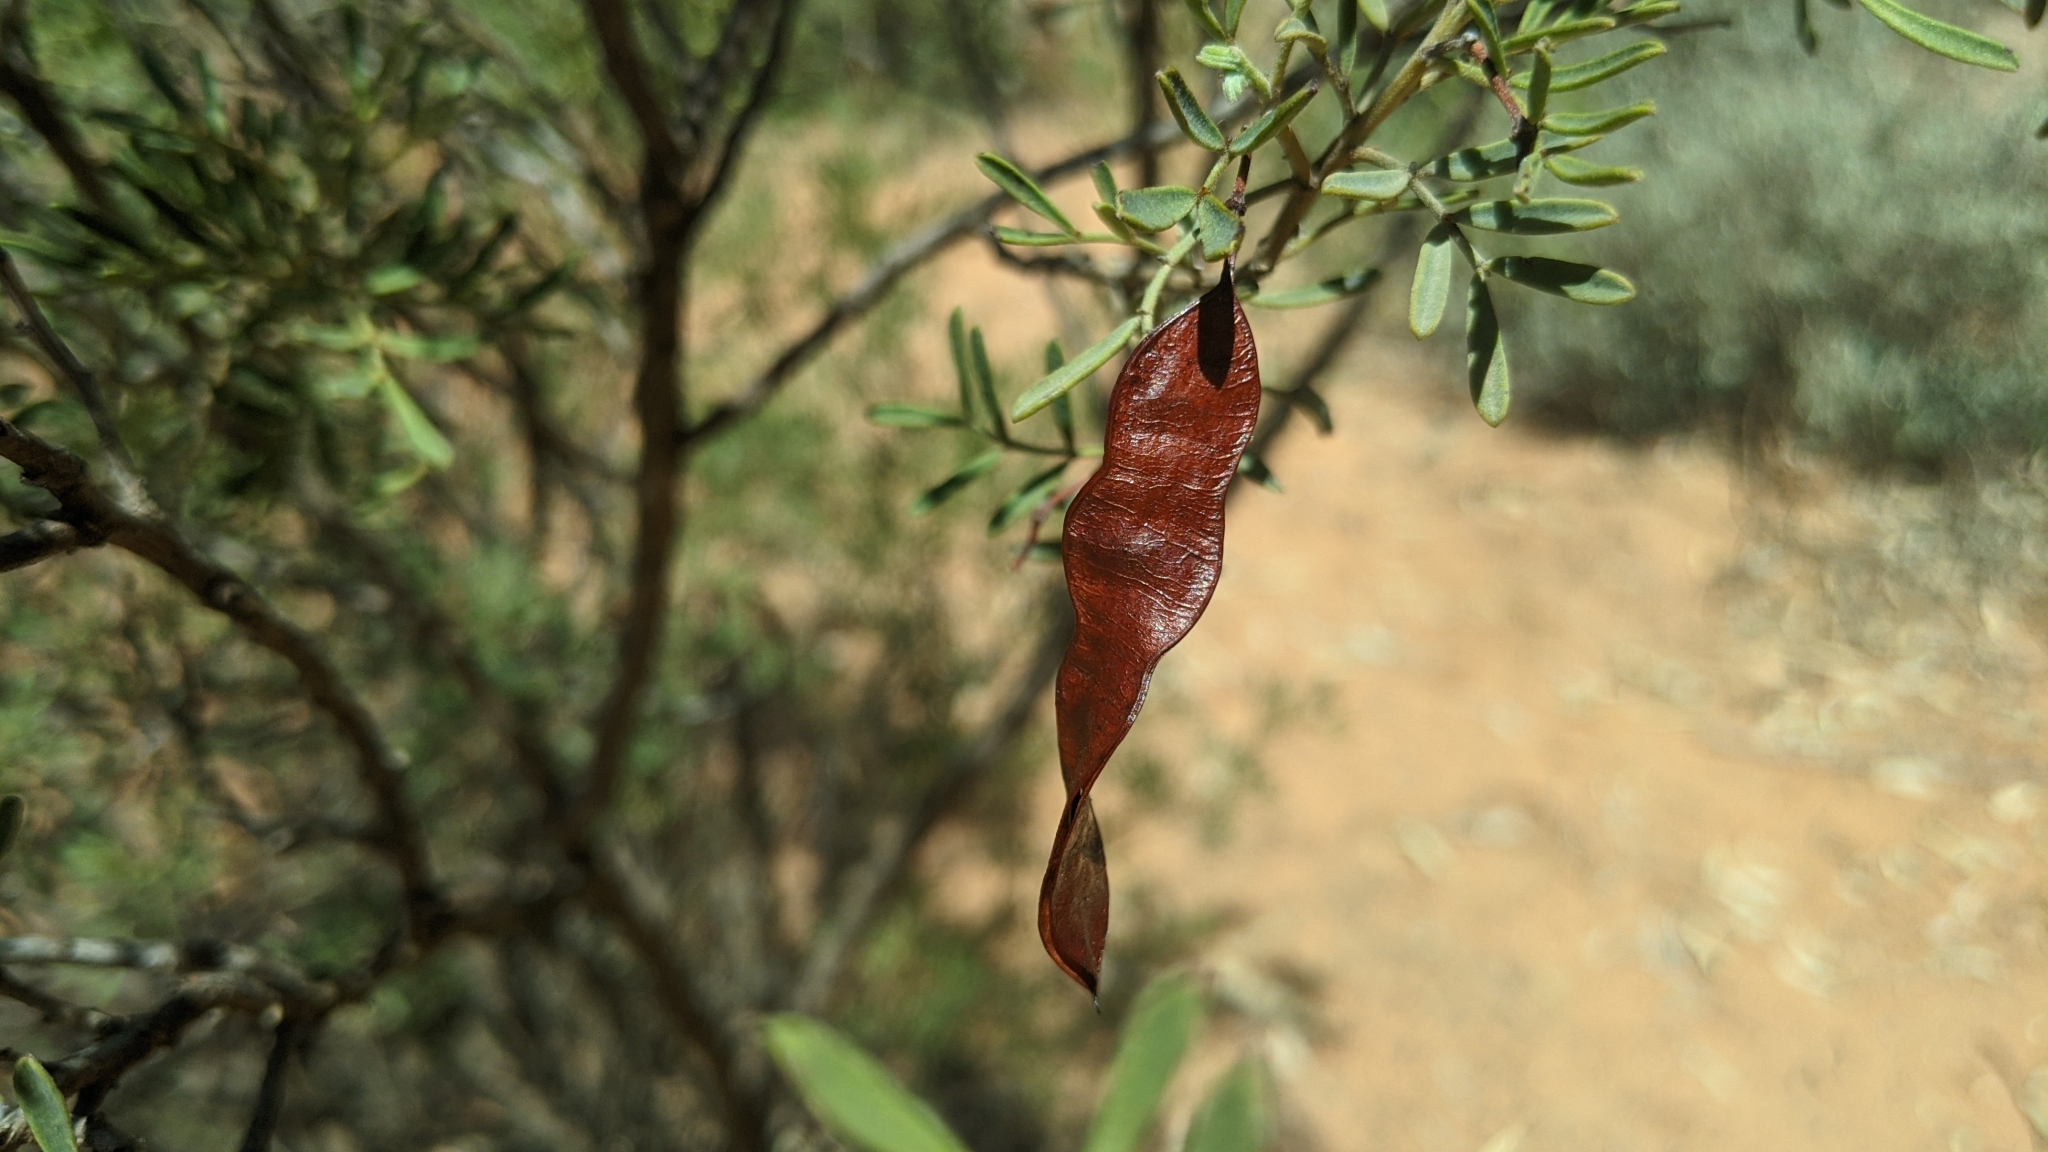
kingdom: Plantae
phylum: Tracheophyta
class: Magnoliopsida
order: Fabales
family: Fabaceae
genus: Senna
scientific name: Senna artemisioides
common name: Burnt-leaved acacia
